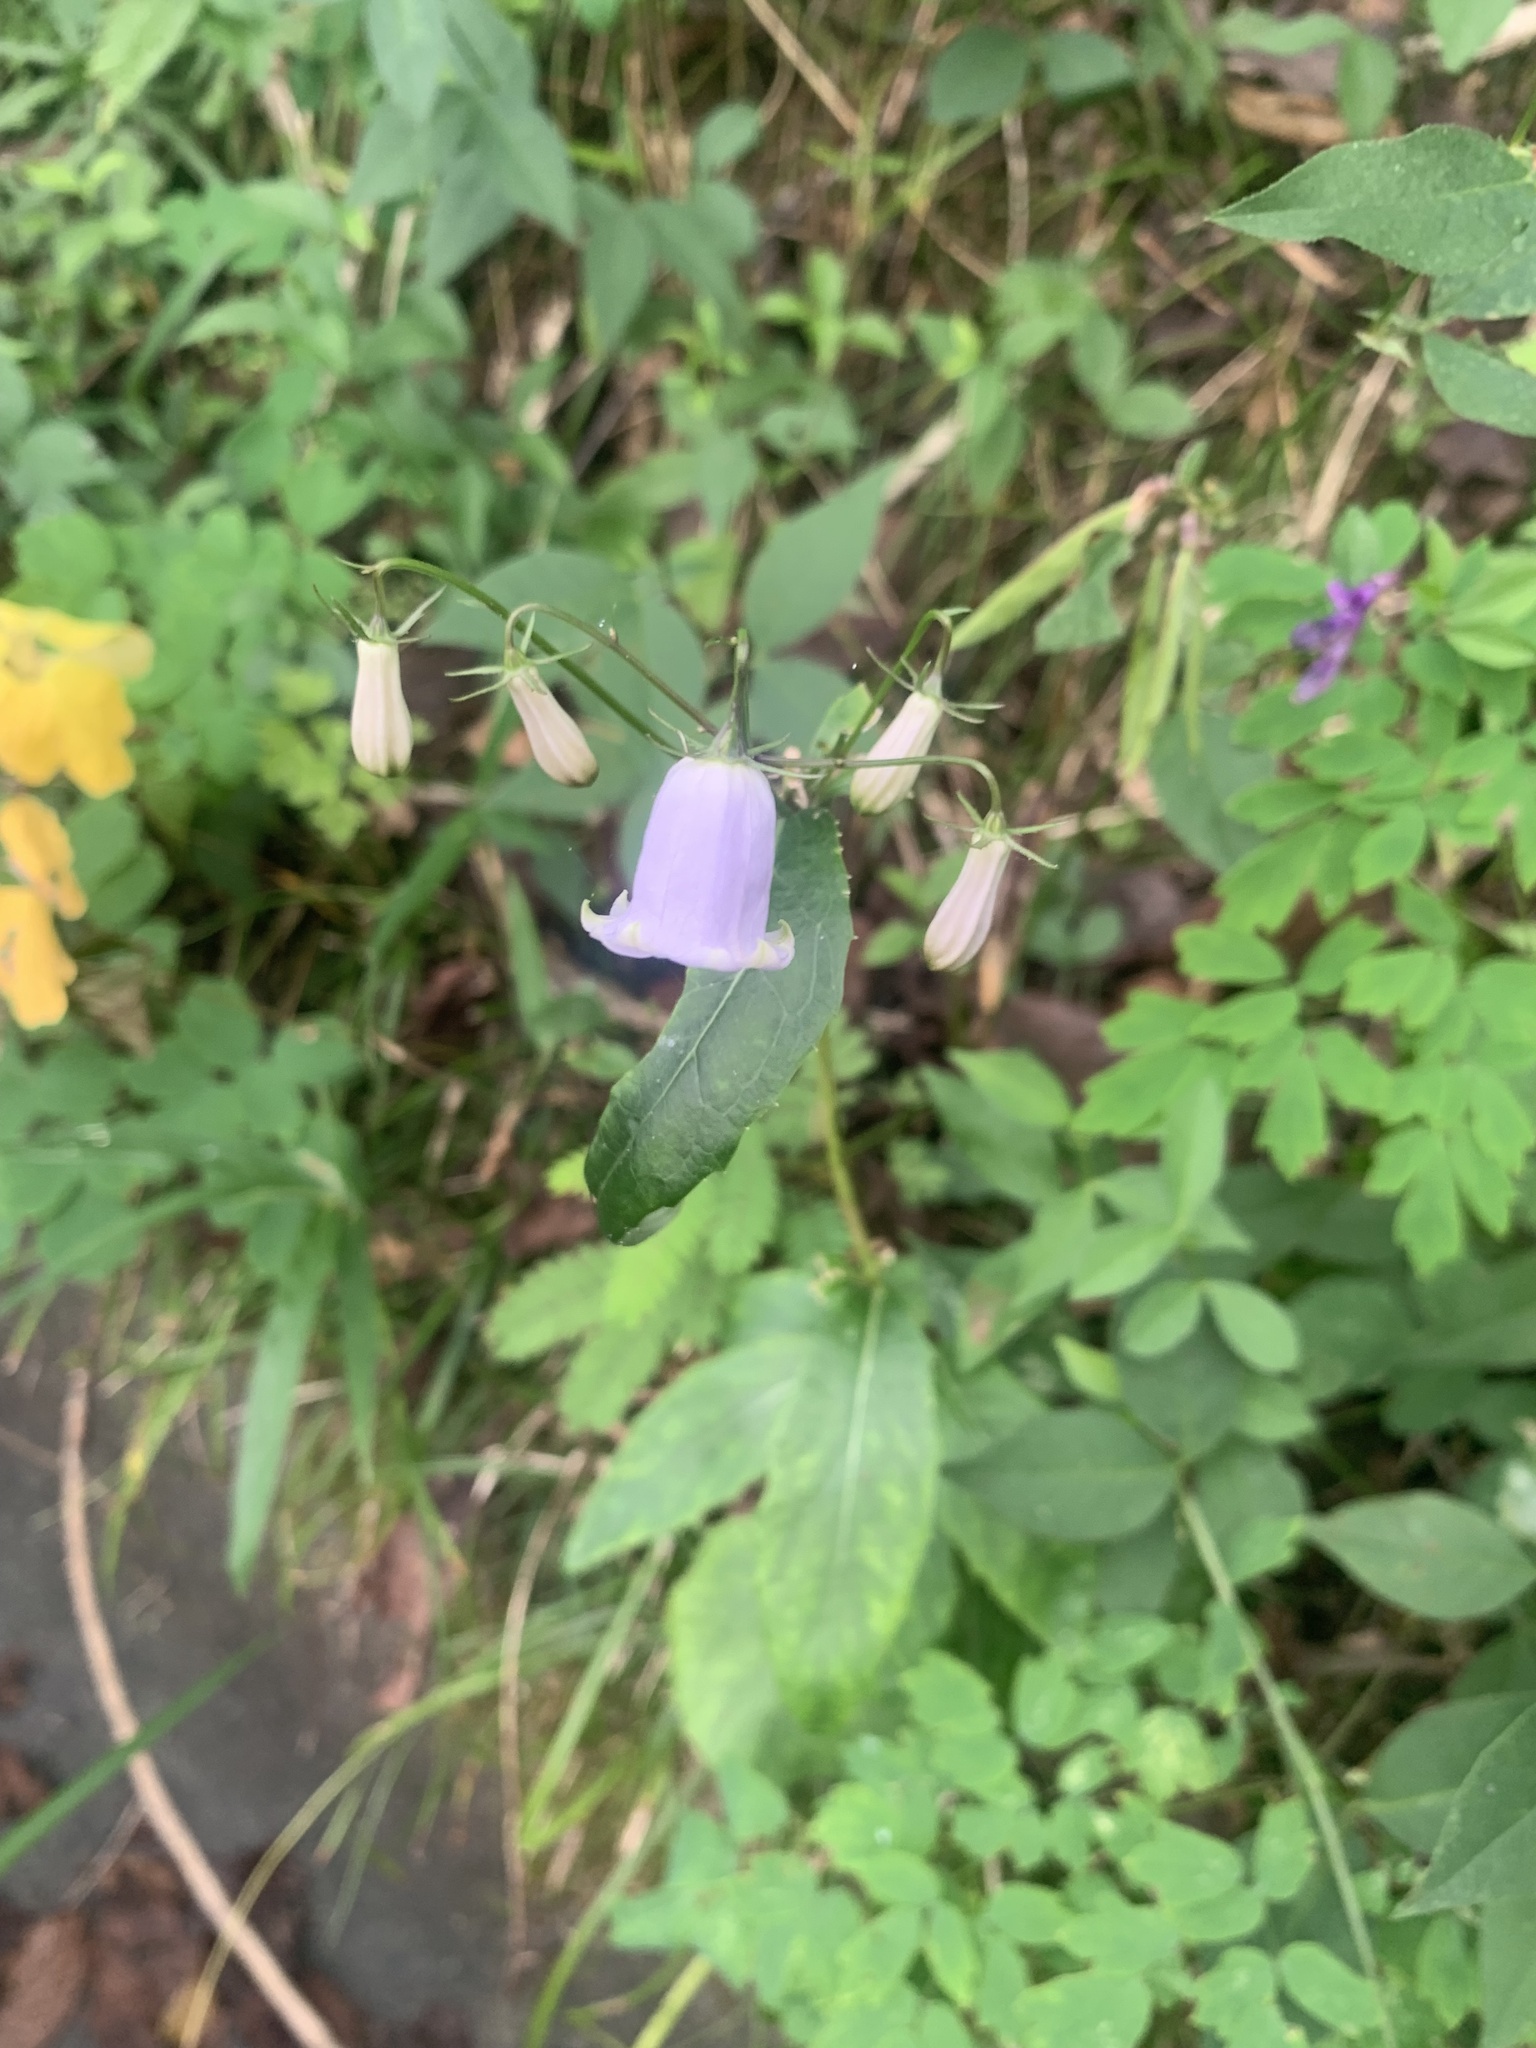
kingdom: Plantae
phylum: Tracheophyta
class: Magnoliopsida
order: Asterales
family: Campanulaceae
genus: Adenophora
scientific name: Adenophora triphylla
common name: Giant-bellflower
